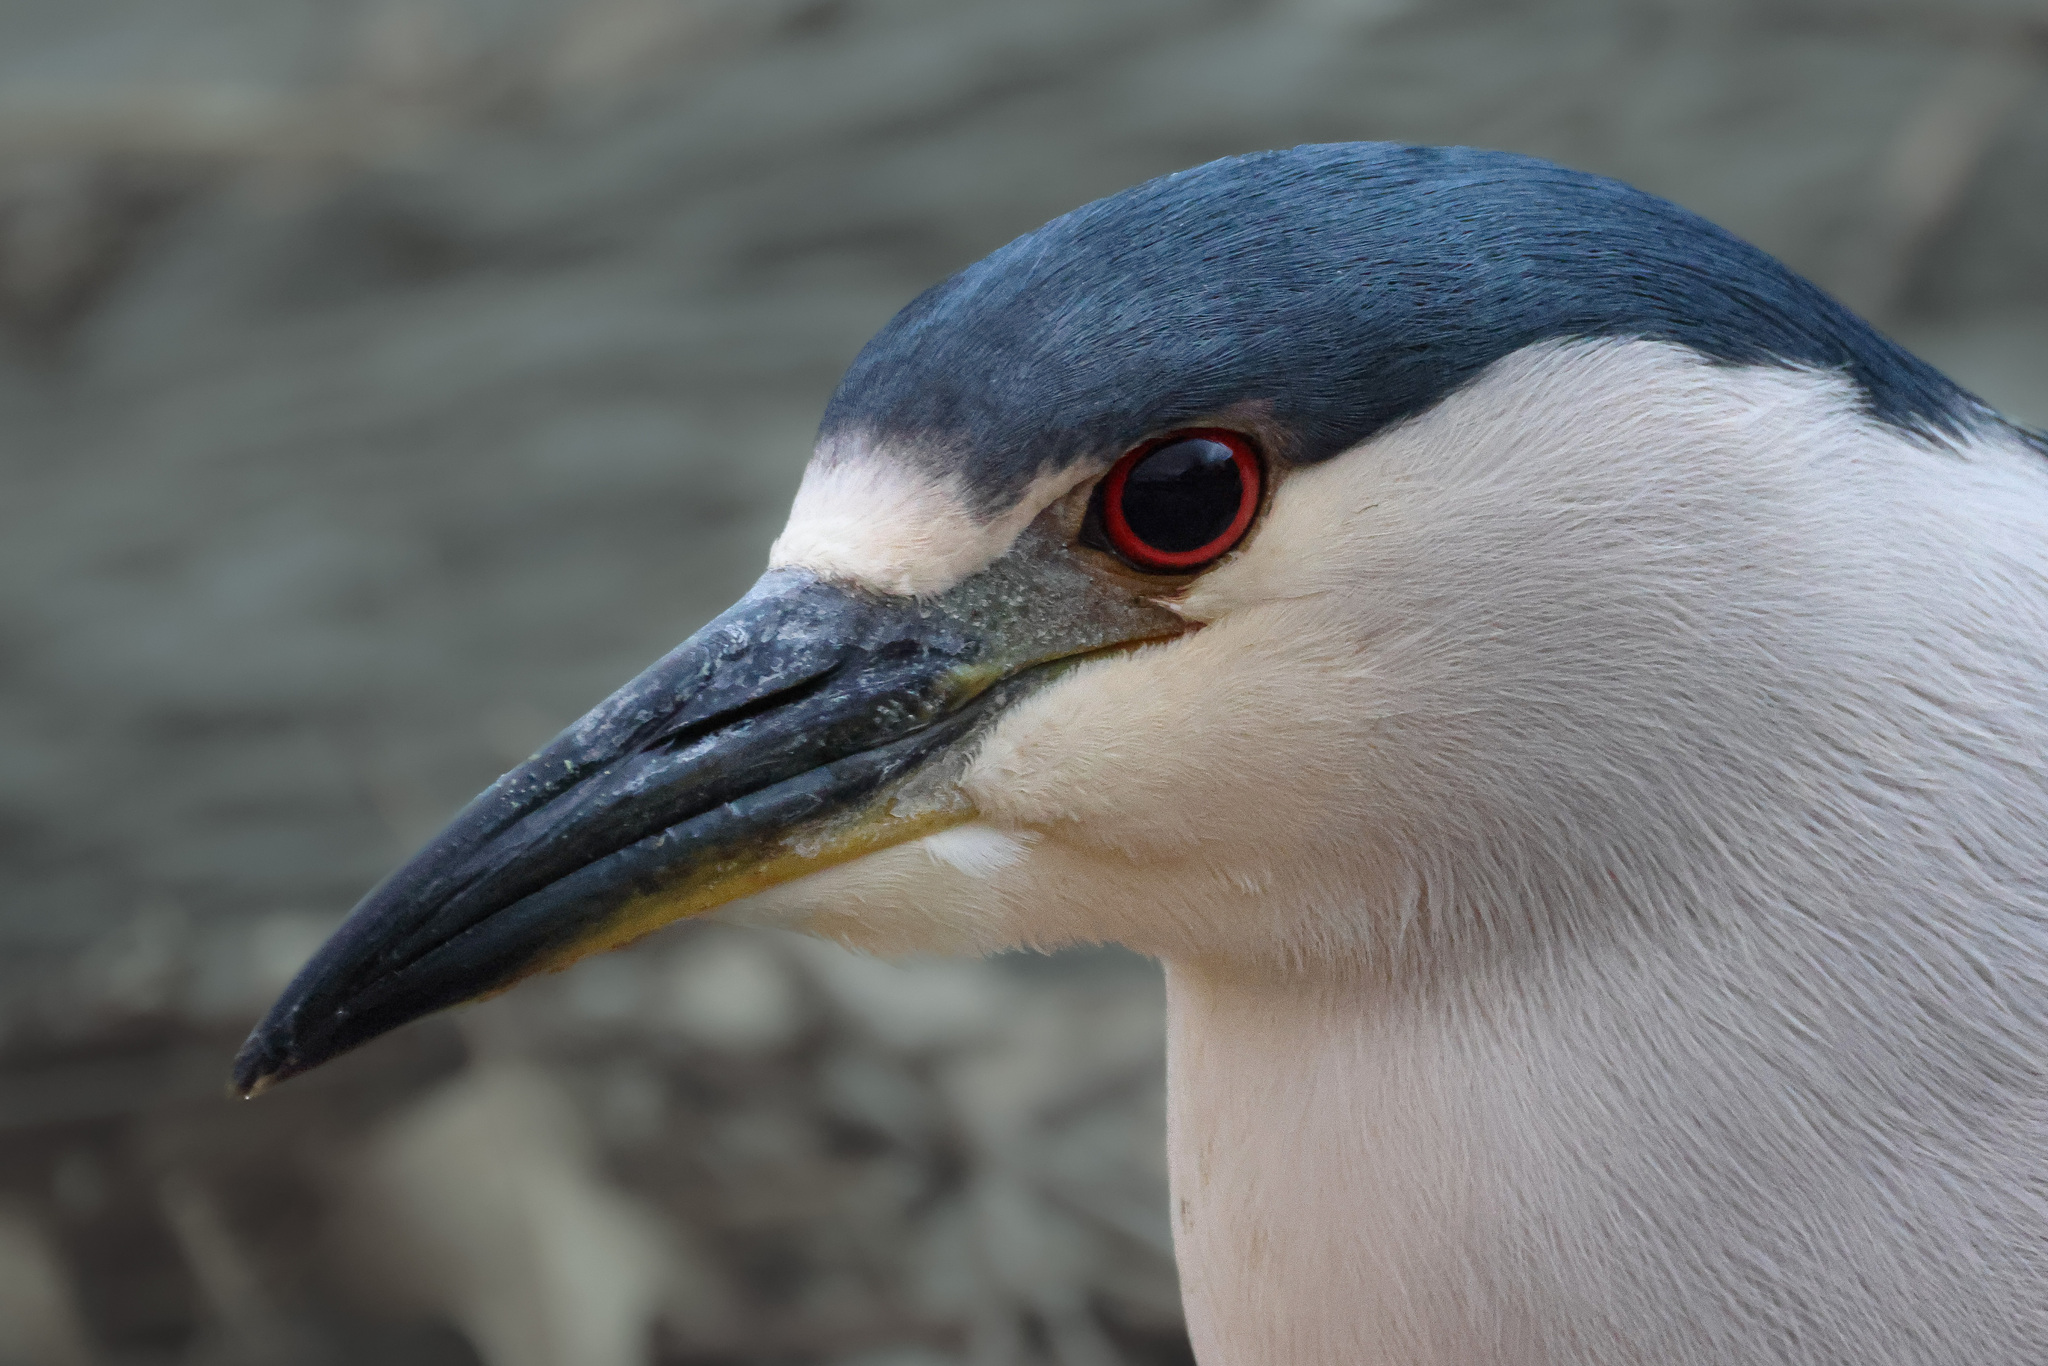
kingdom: Animalia
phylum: Chordata
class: Aves
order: Pelecaniformes
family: Ardeidae
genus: Nycticorax
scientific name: Nycticorax nycticorax
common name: Black-crowned night heron
